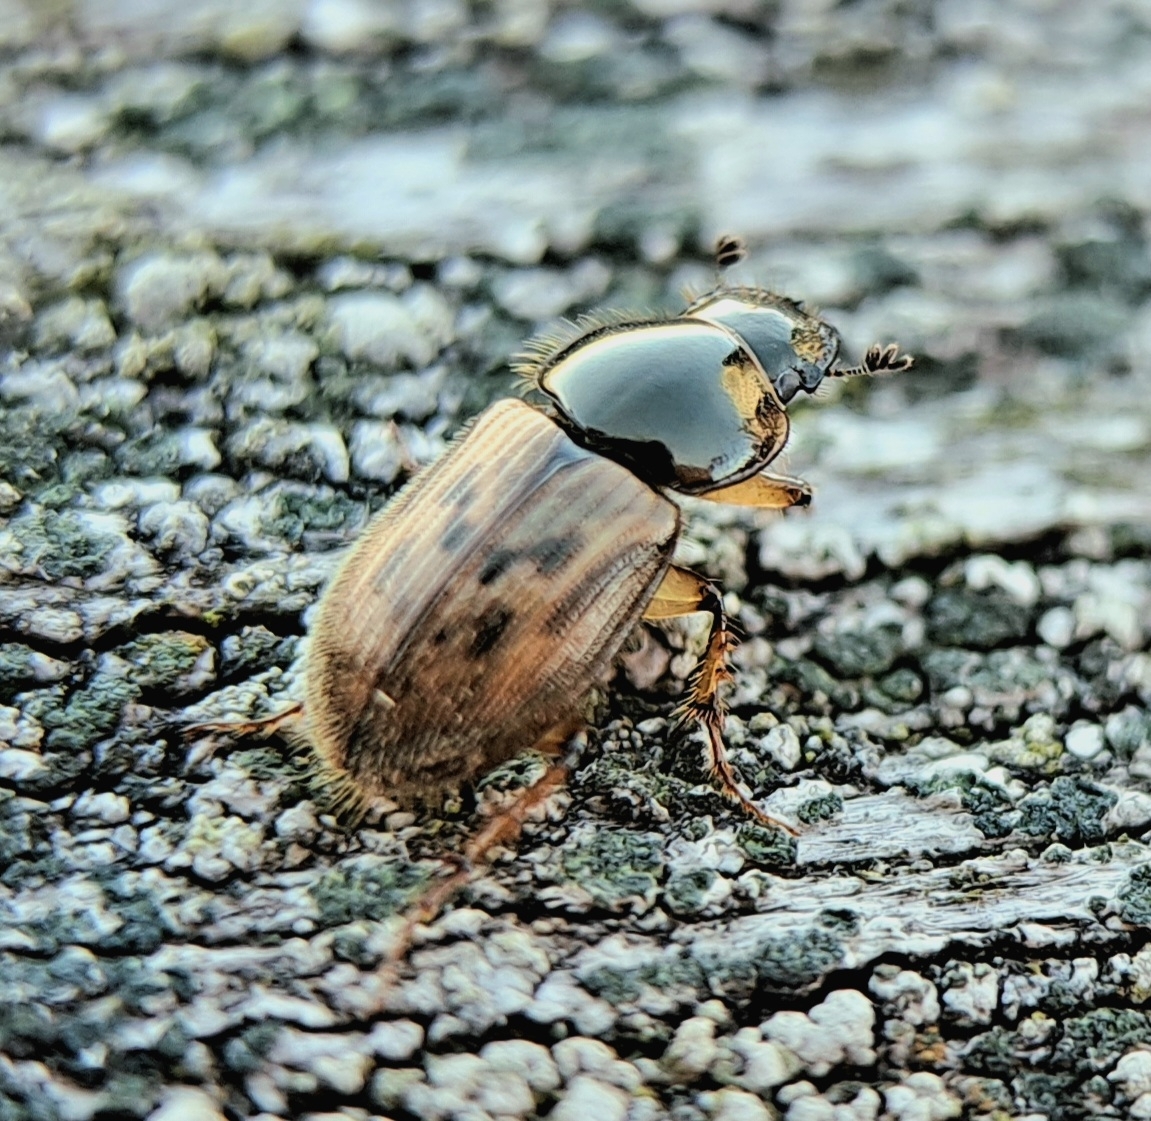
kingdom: Animalia
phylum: Arthropoda
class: Insecta
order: Coleoptera
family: Scarabaeidae
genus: Nimbus
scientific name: Nimbus contaminatus
